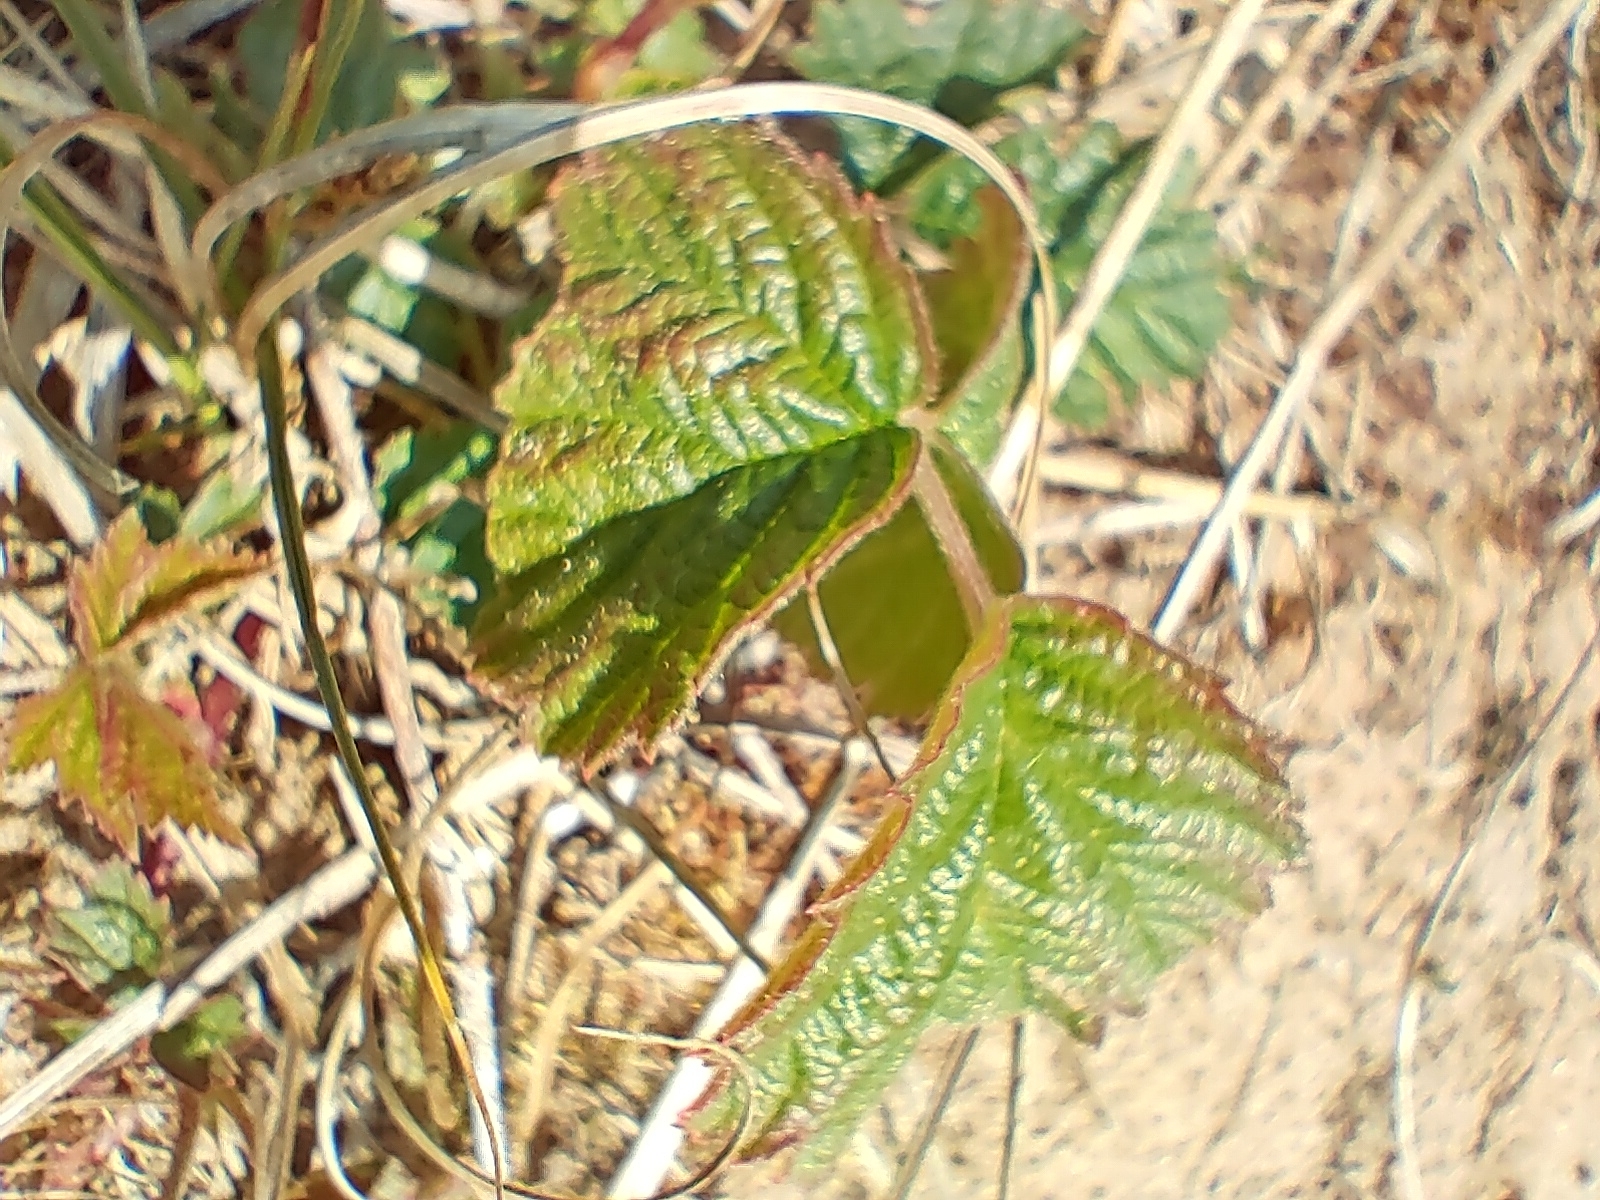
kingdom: Plantae
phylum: Tracheophyta
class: Magnoliopsida
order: Rosales
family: Rosaceae
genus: Rubus
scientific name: Rubus caesius
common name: Dewberry
